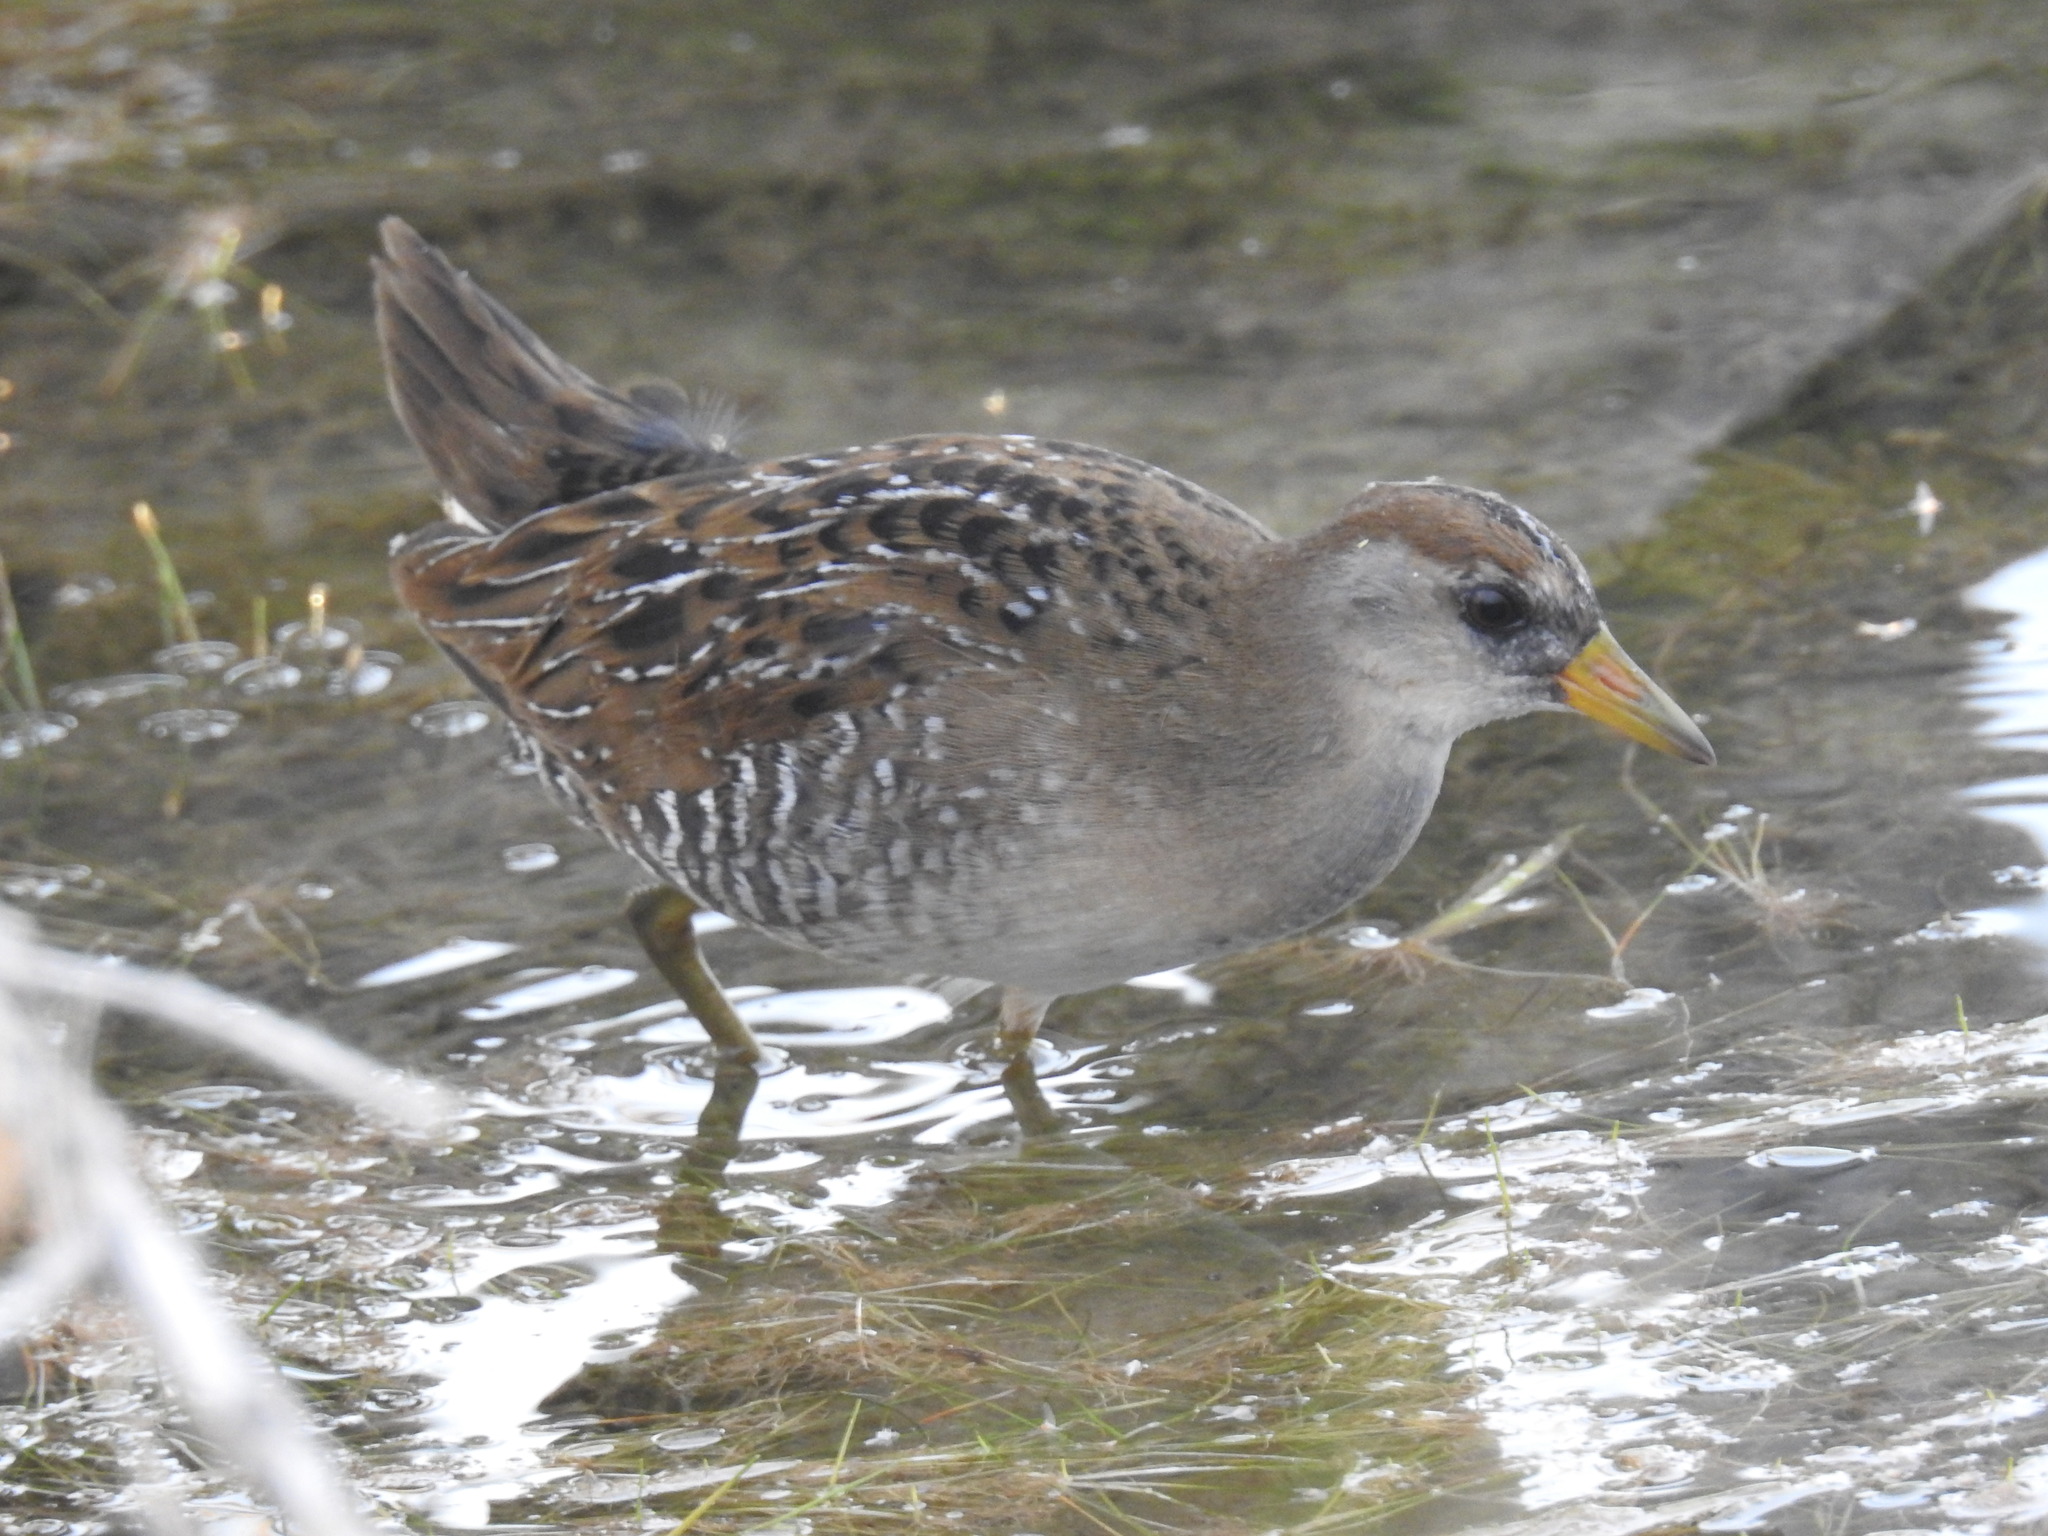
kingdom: Animalia
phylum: Chordata
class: Aves
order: Gruiformes
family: Rallidae
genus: Porzana
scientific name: Porzana carolina
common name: Sora
